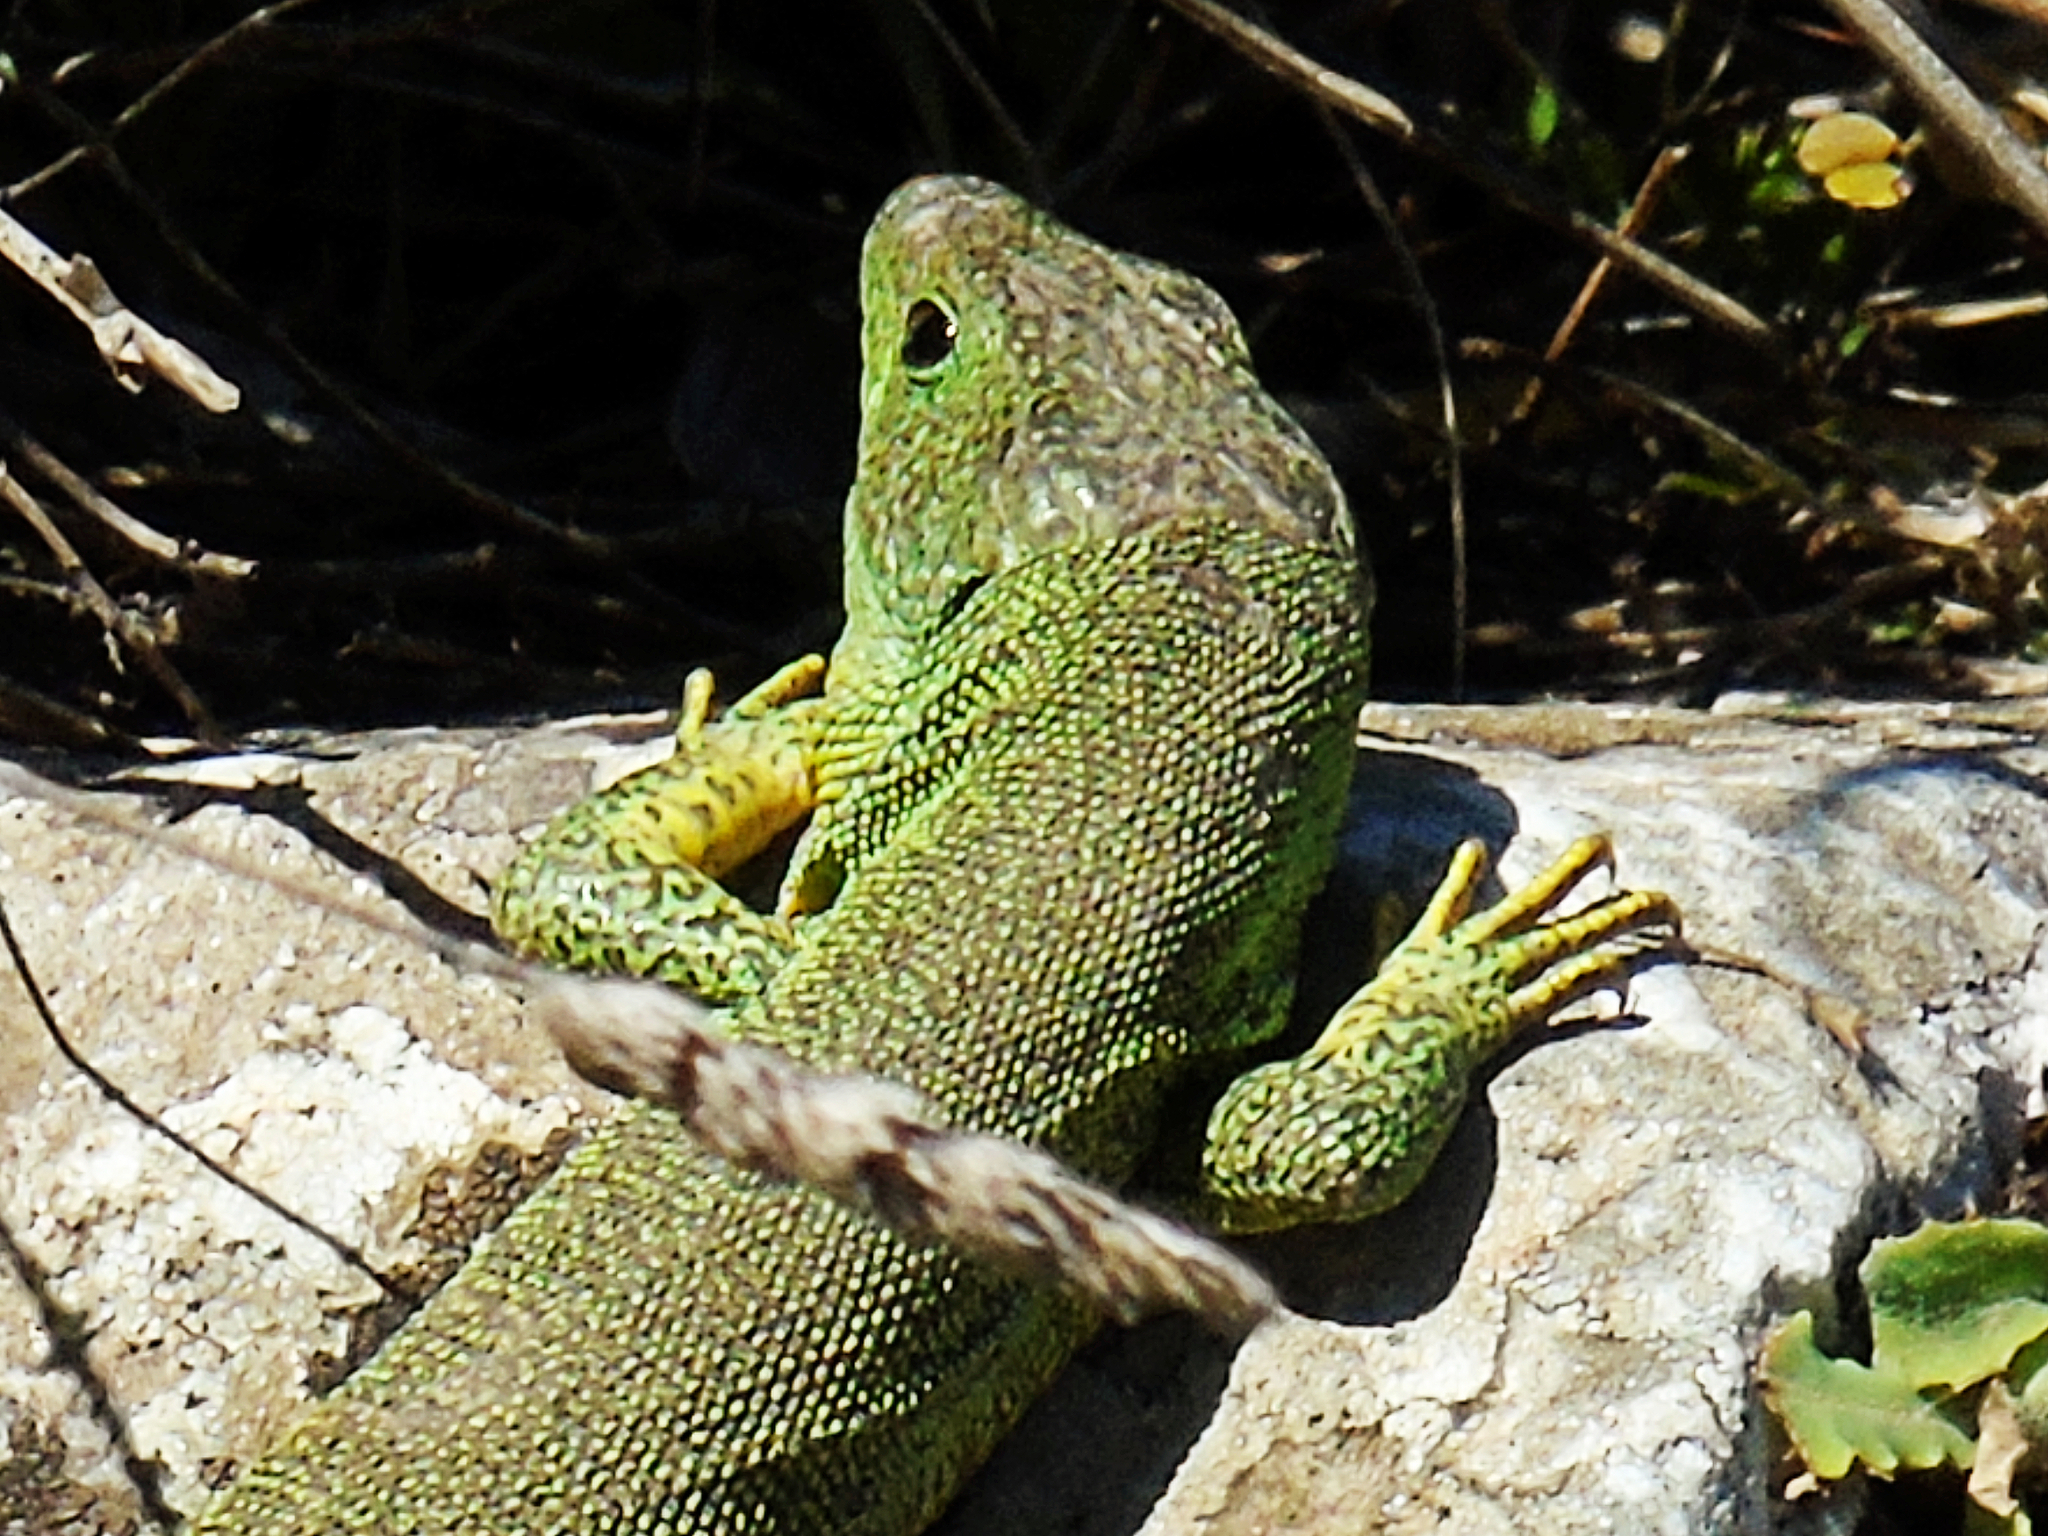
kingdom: Animalia
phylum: Chordata
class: Squamata
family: Lacertidae
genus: Lacerta
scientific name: Lacerta trilineata
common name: Balkan green lizard
